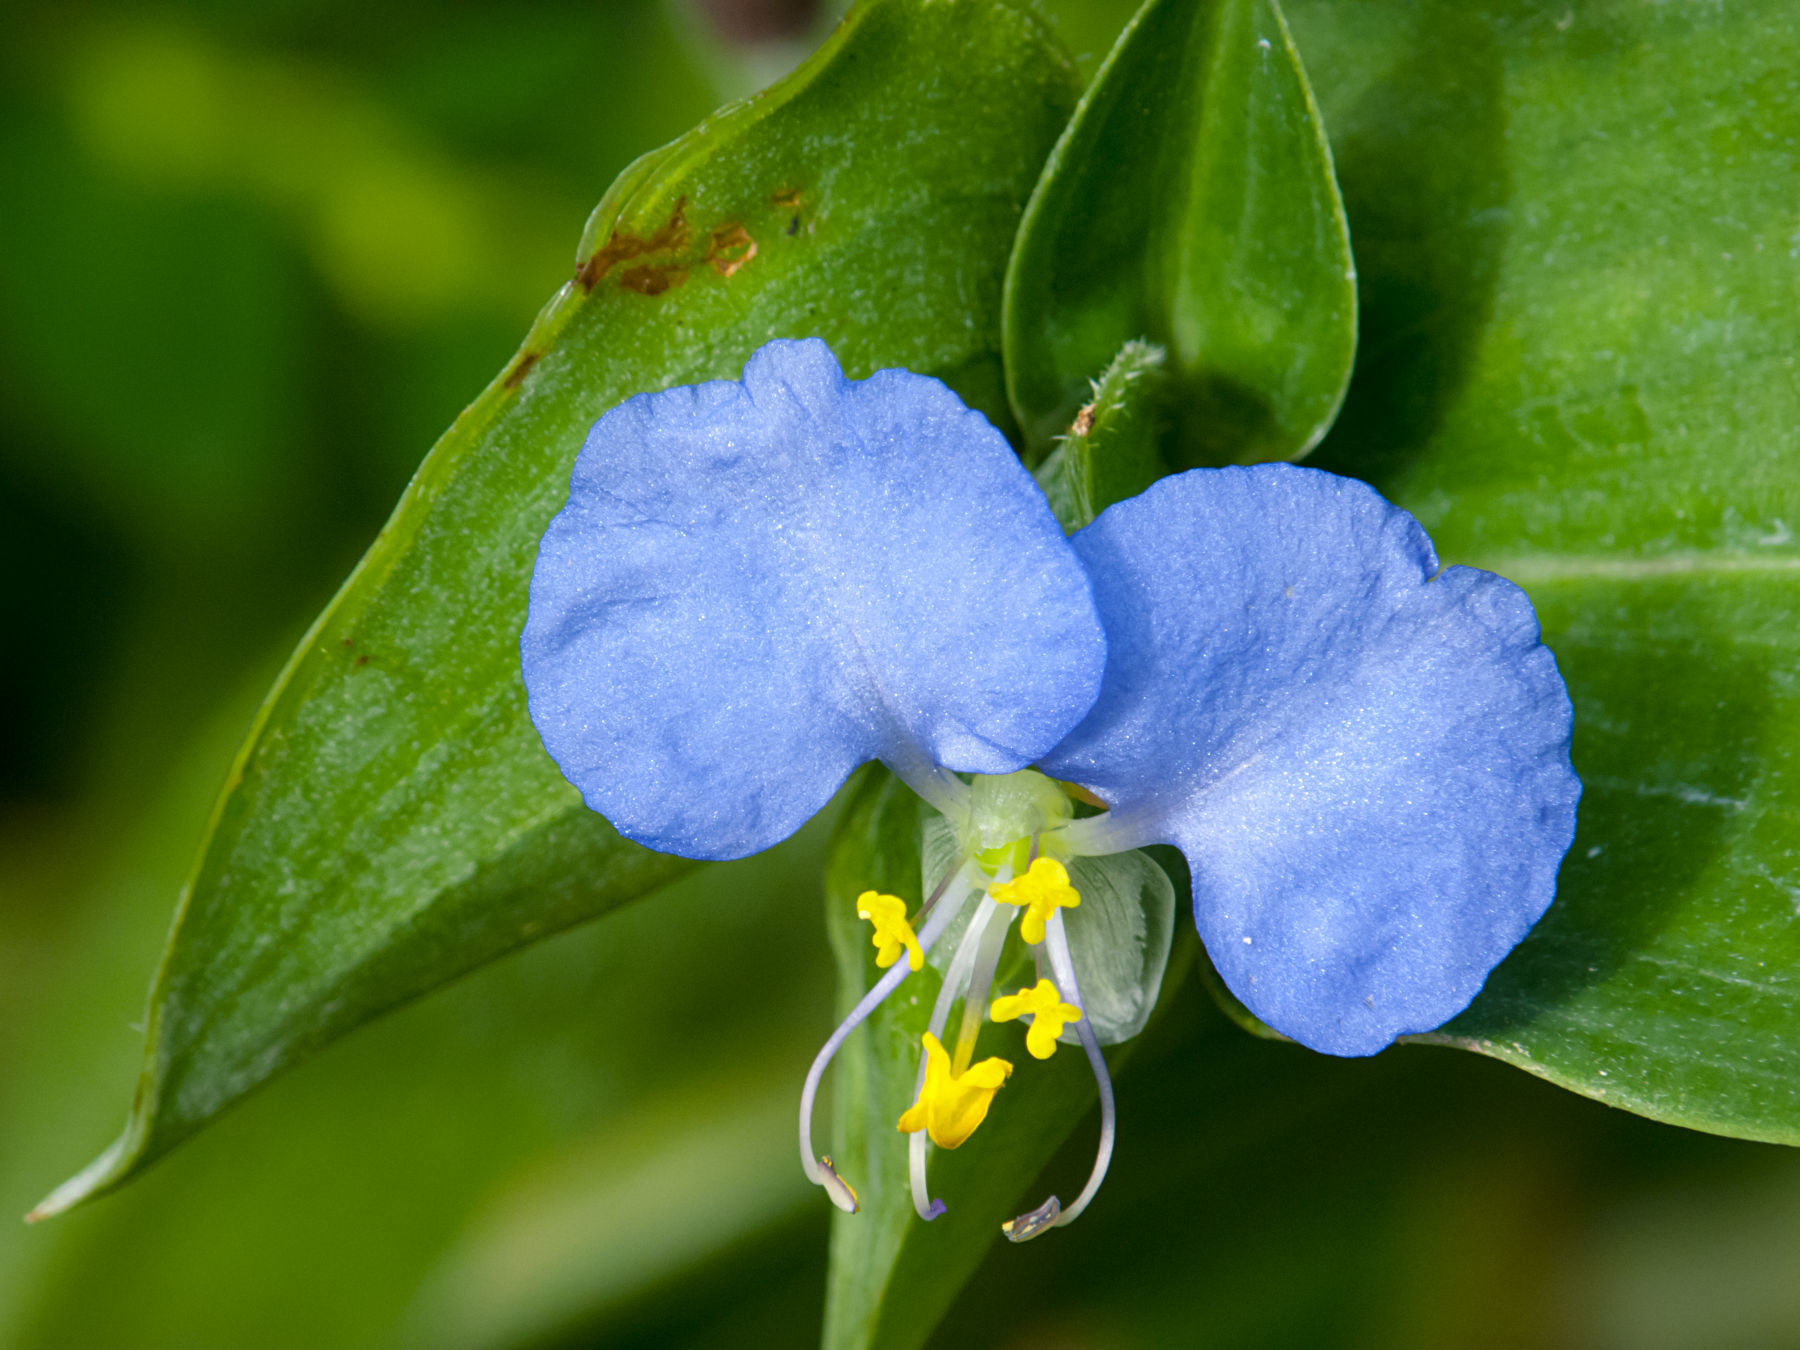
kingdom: Plantae
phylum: Tracheophyta
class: Liliopsida
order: Commelinales
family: Commelinaceae
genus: Commelina
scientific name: Commelina erecta
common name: Blousel blommetjie
